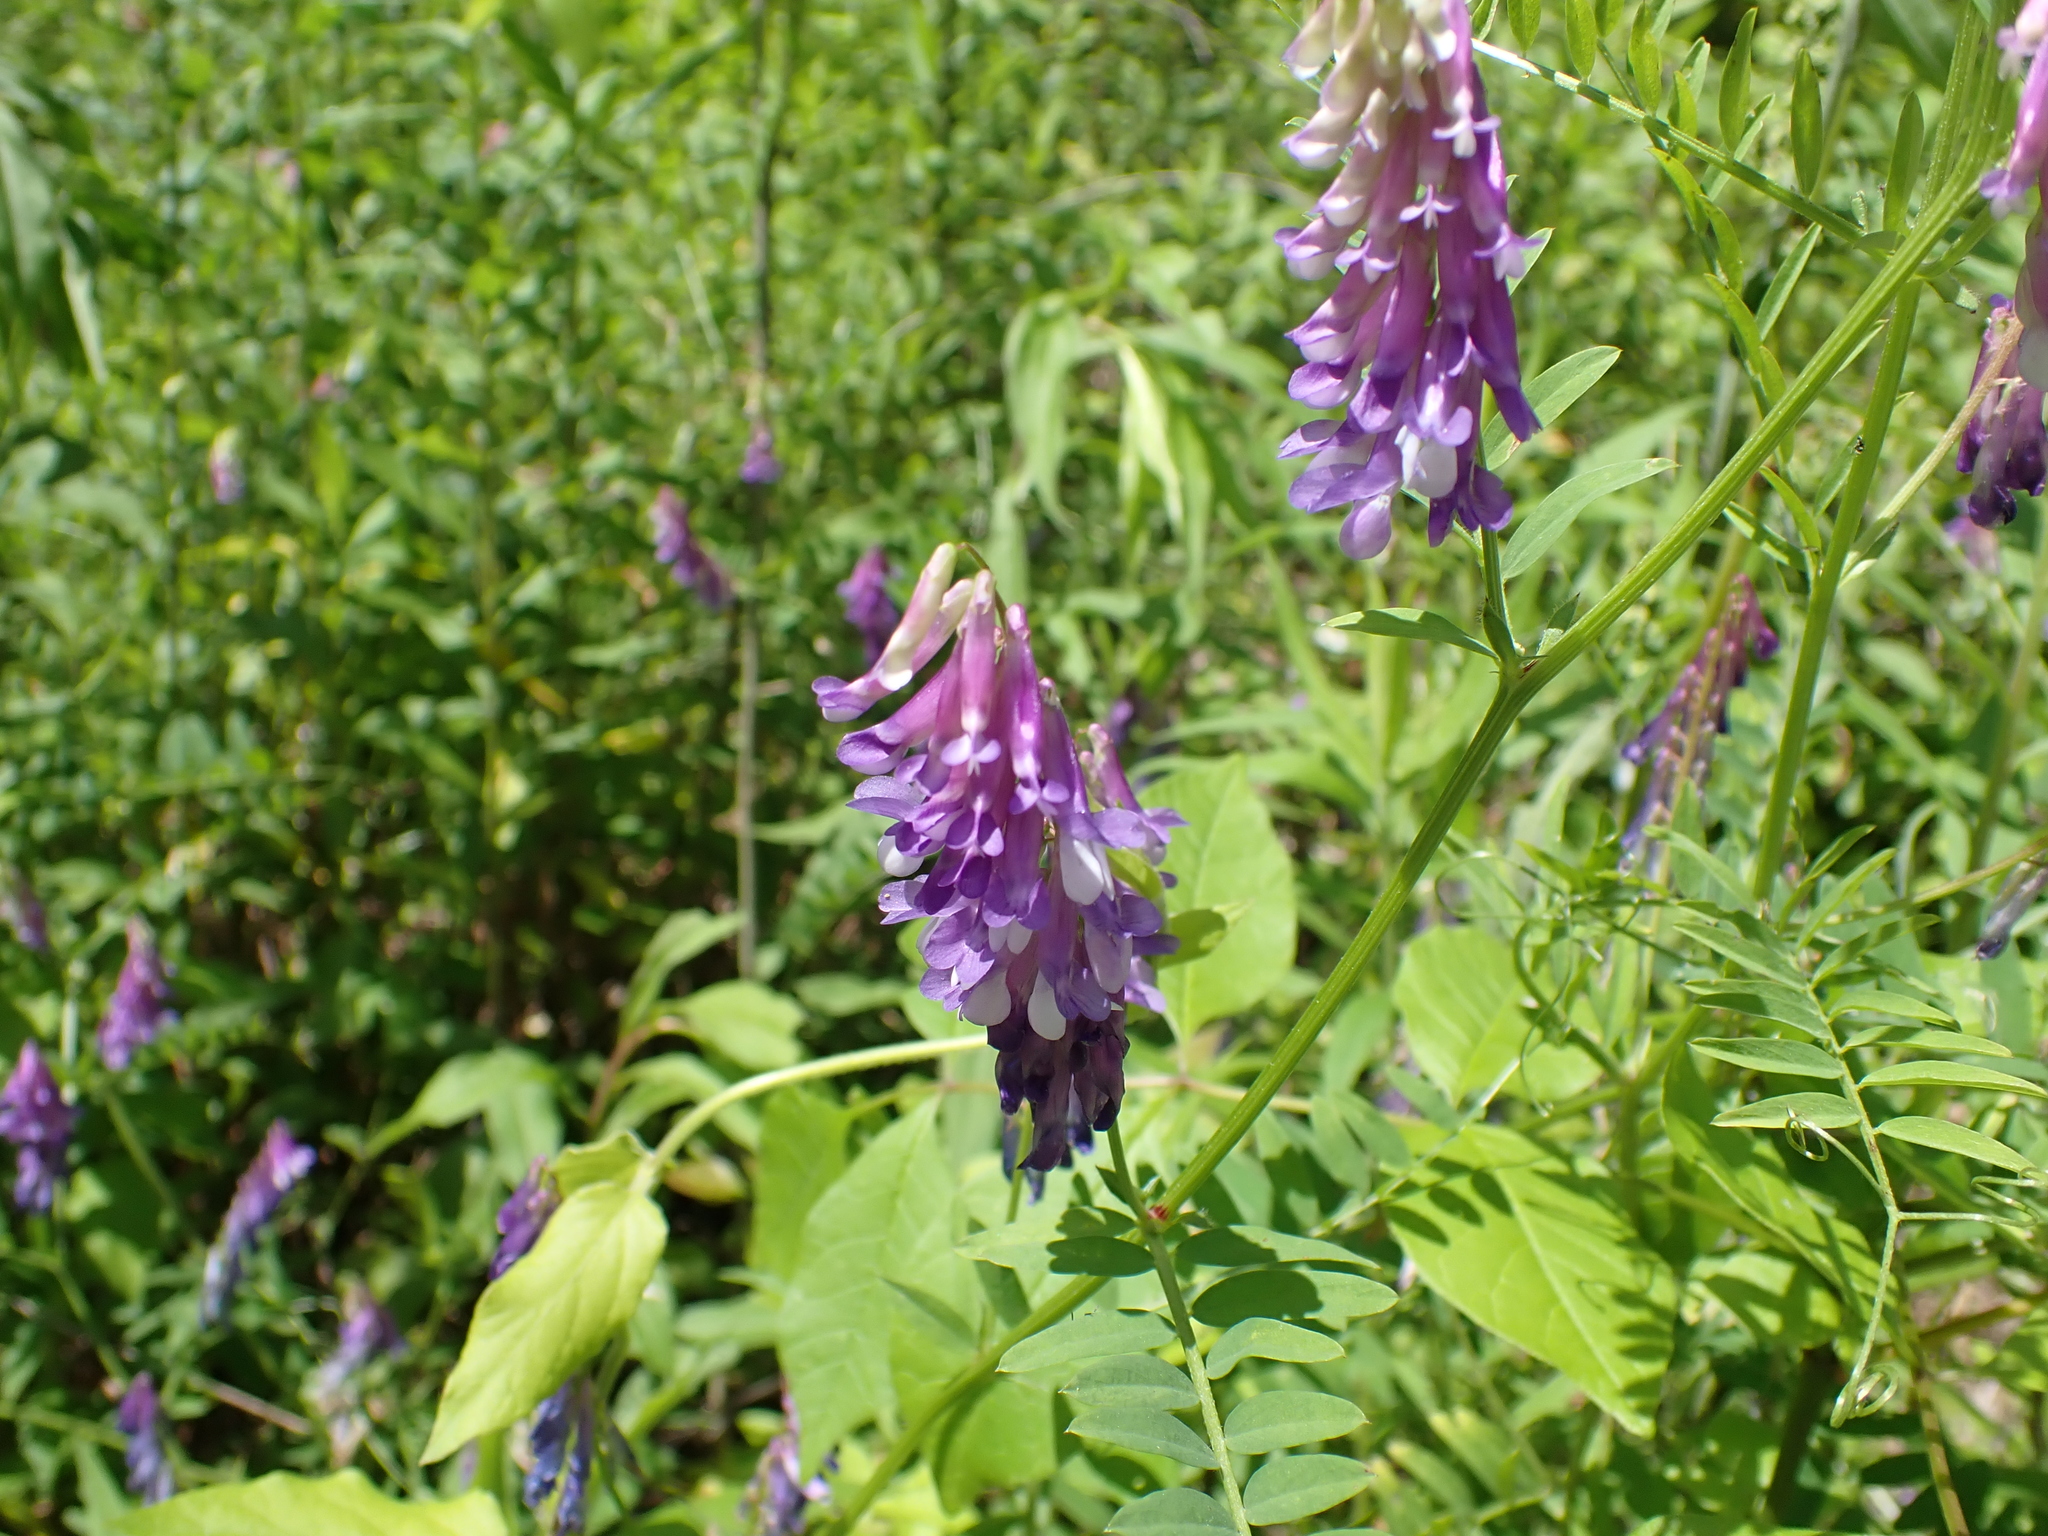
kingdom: Plantae
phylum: Tracheophyta
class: Magnoliopsida
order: Fabales
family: Fabaceae
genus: Vicia
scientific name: Vicia villosa
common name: Fodder vetch
